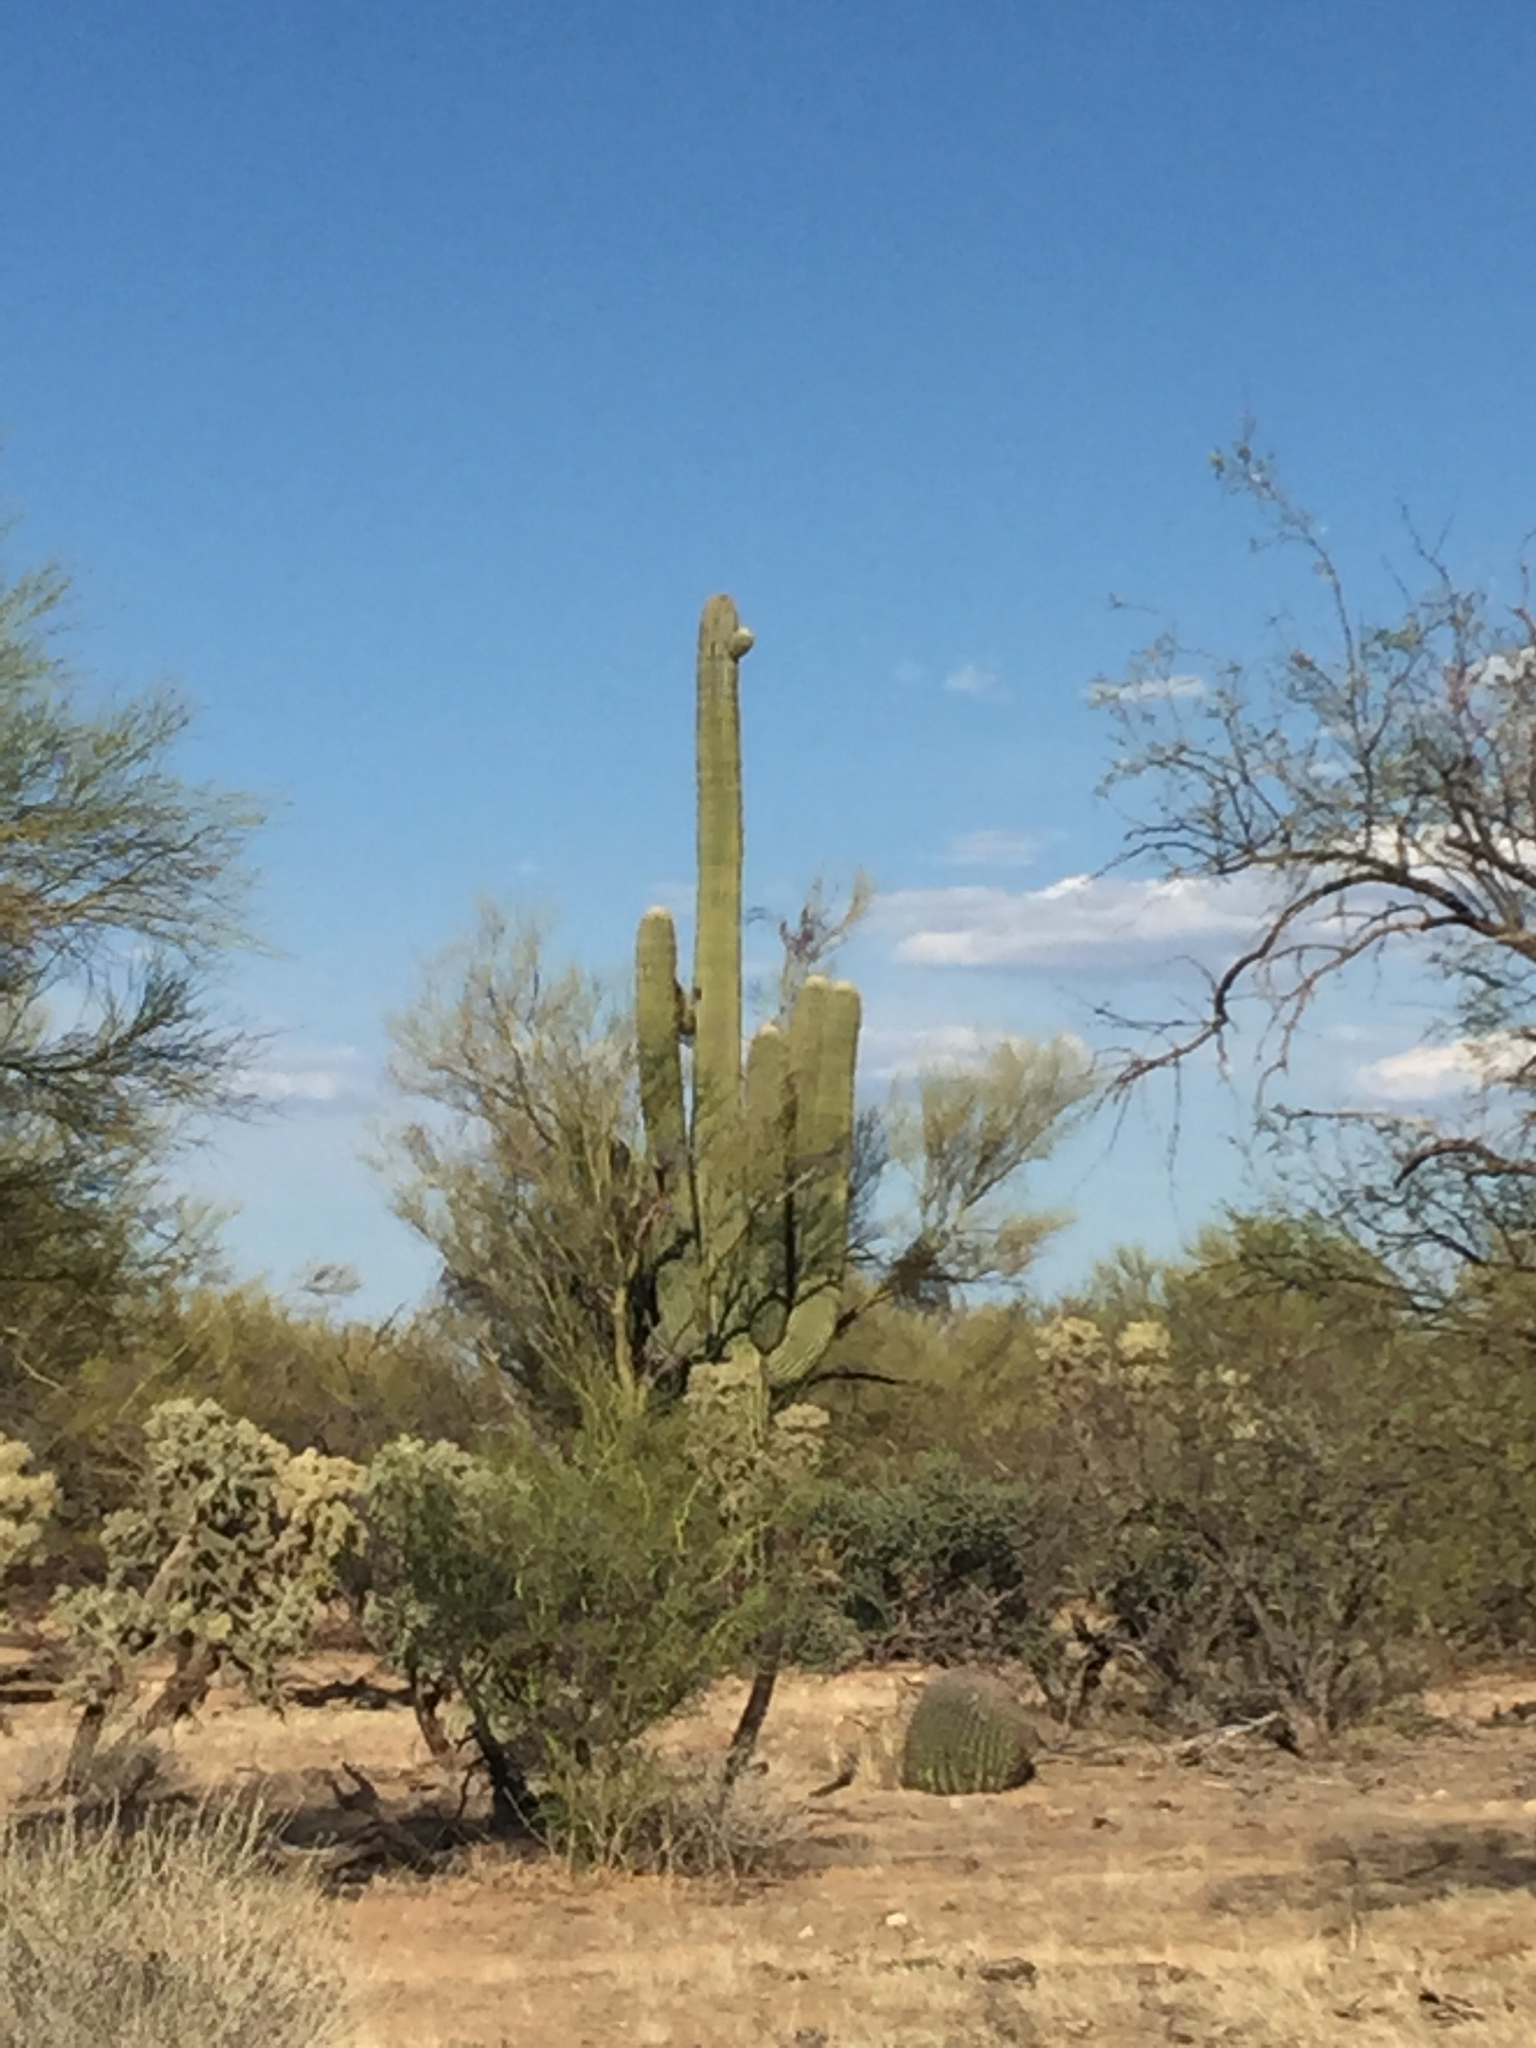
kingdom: Plantae
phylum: Tracheophyta
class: Magnoliopsida
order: Caryophyllales
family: Cactaceae
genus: Carnegiea
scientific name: Carnegiea gigantea
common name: Saguaro
